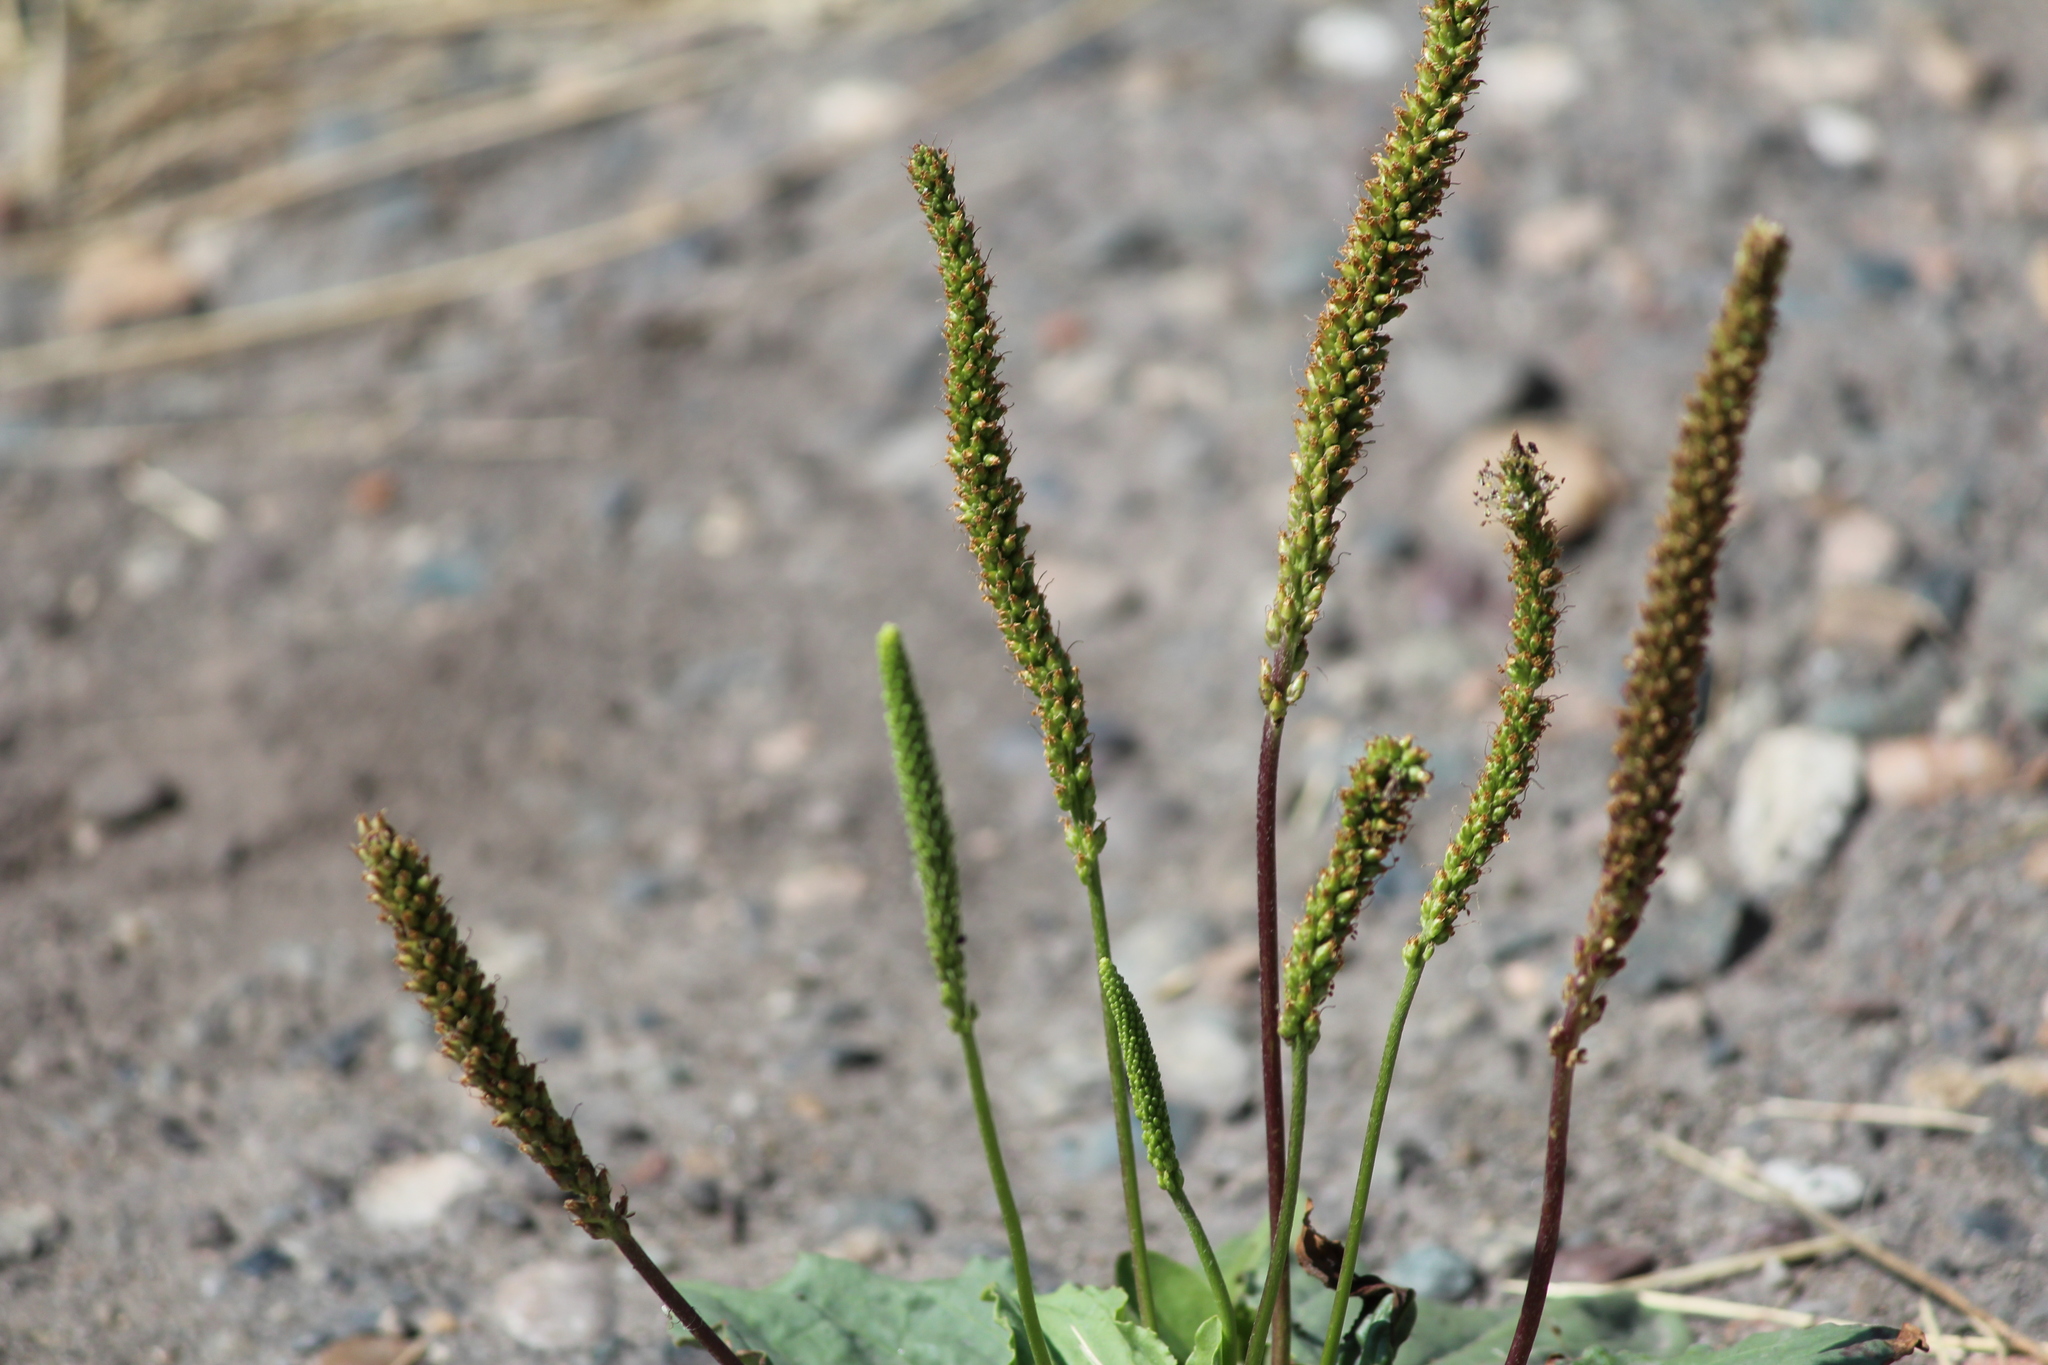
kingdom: Plantae
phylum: Tracheophyta
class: Magnoliopsida
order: Lamiales
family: Plantaginaceae
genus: Plantago
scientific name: Plantago depressa
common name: Depressed plantain
